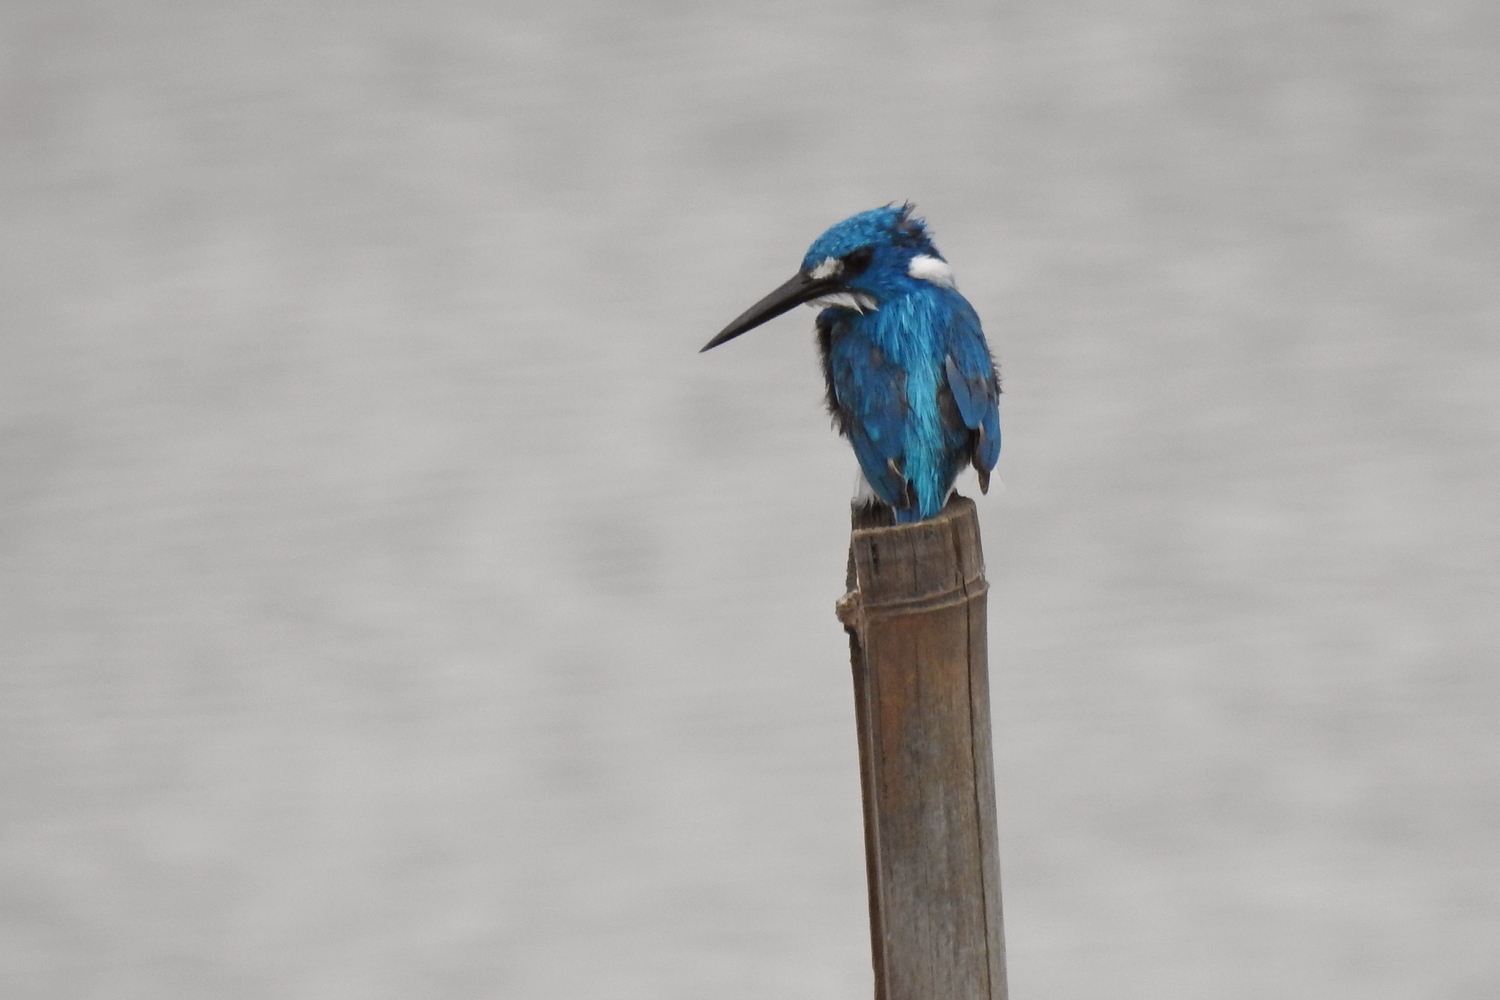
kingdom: Animalia
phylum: Chordata
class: Aves
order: Coraciiformes
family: Alcedinidae
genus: Alcedo
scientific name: Alcedo coerulescens
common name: Cerulean kingfisher
